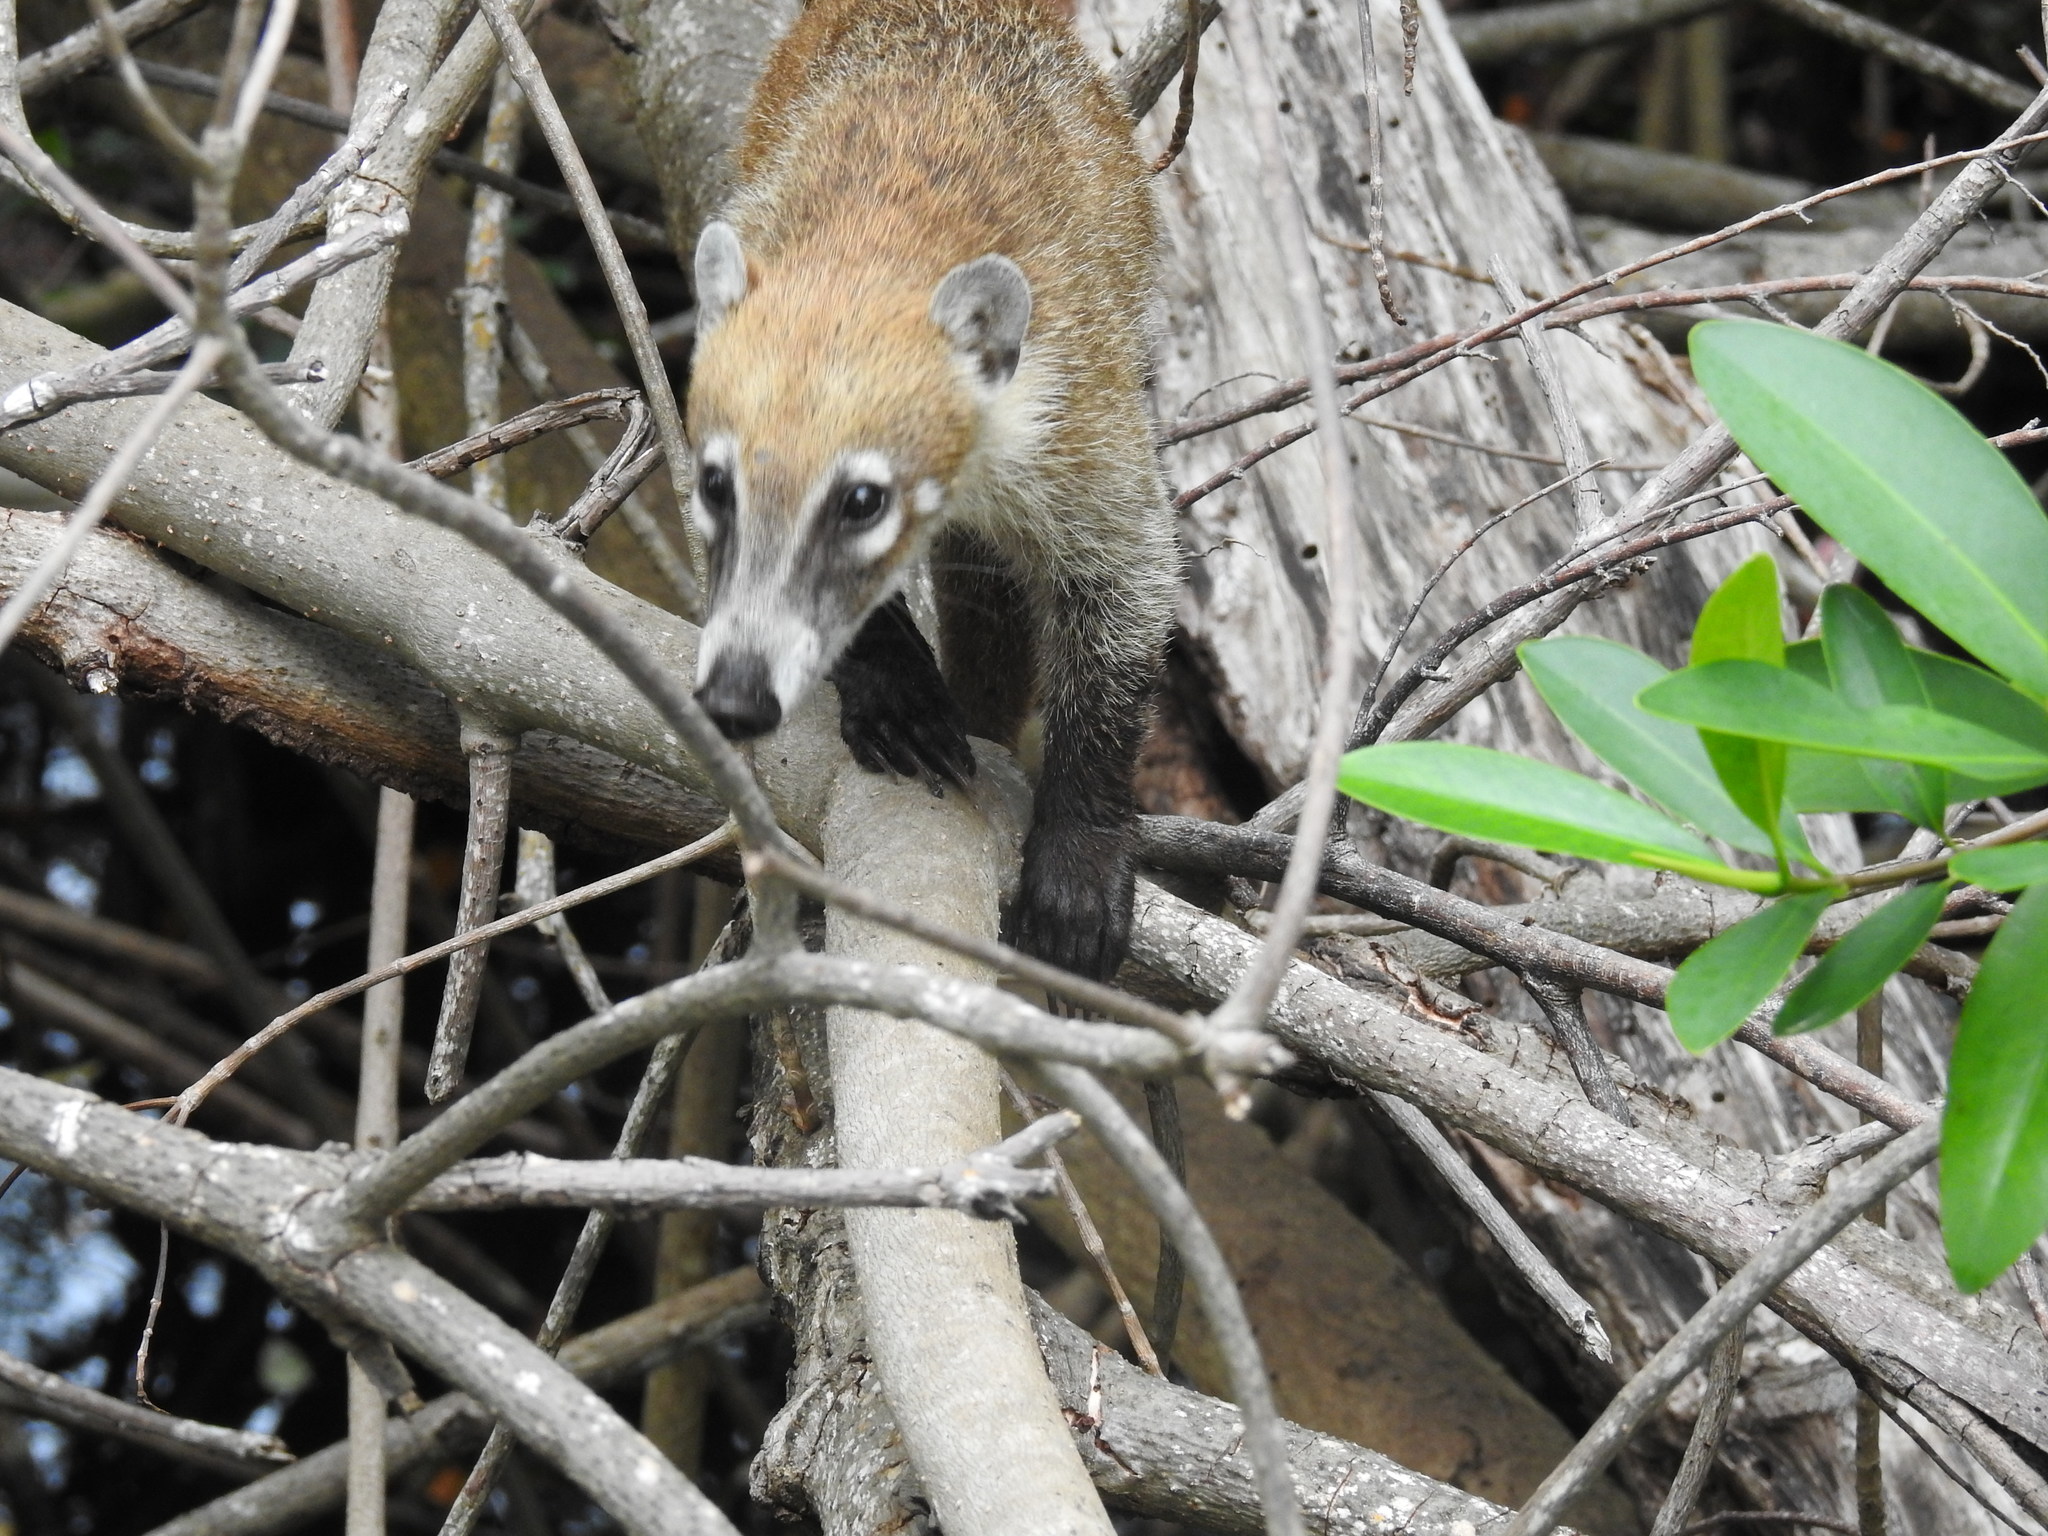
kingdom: Animalia
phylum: Chordata
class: Mammalia
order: Carnivora
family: Procyonidae
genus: Nasua
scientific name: Nasua narica
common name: White-nosed coati
